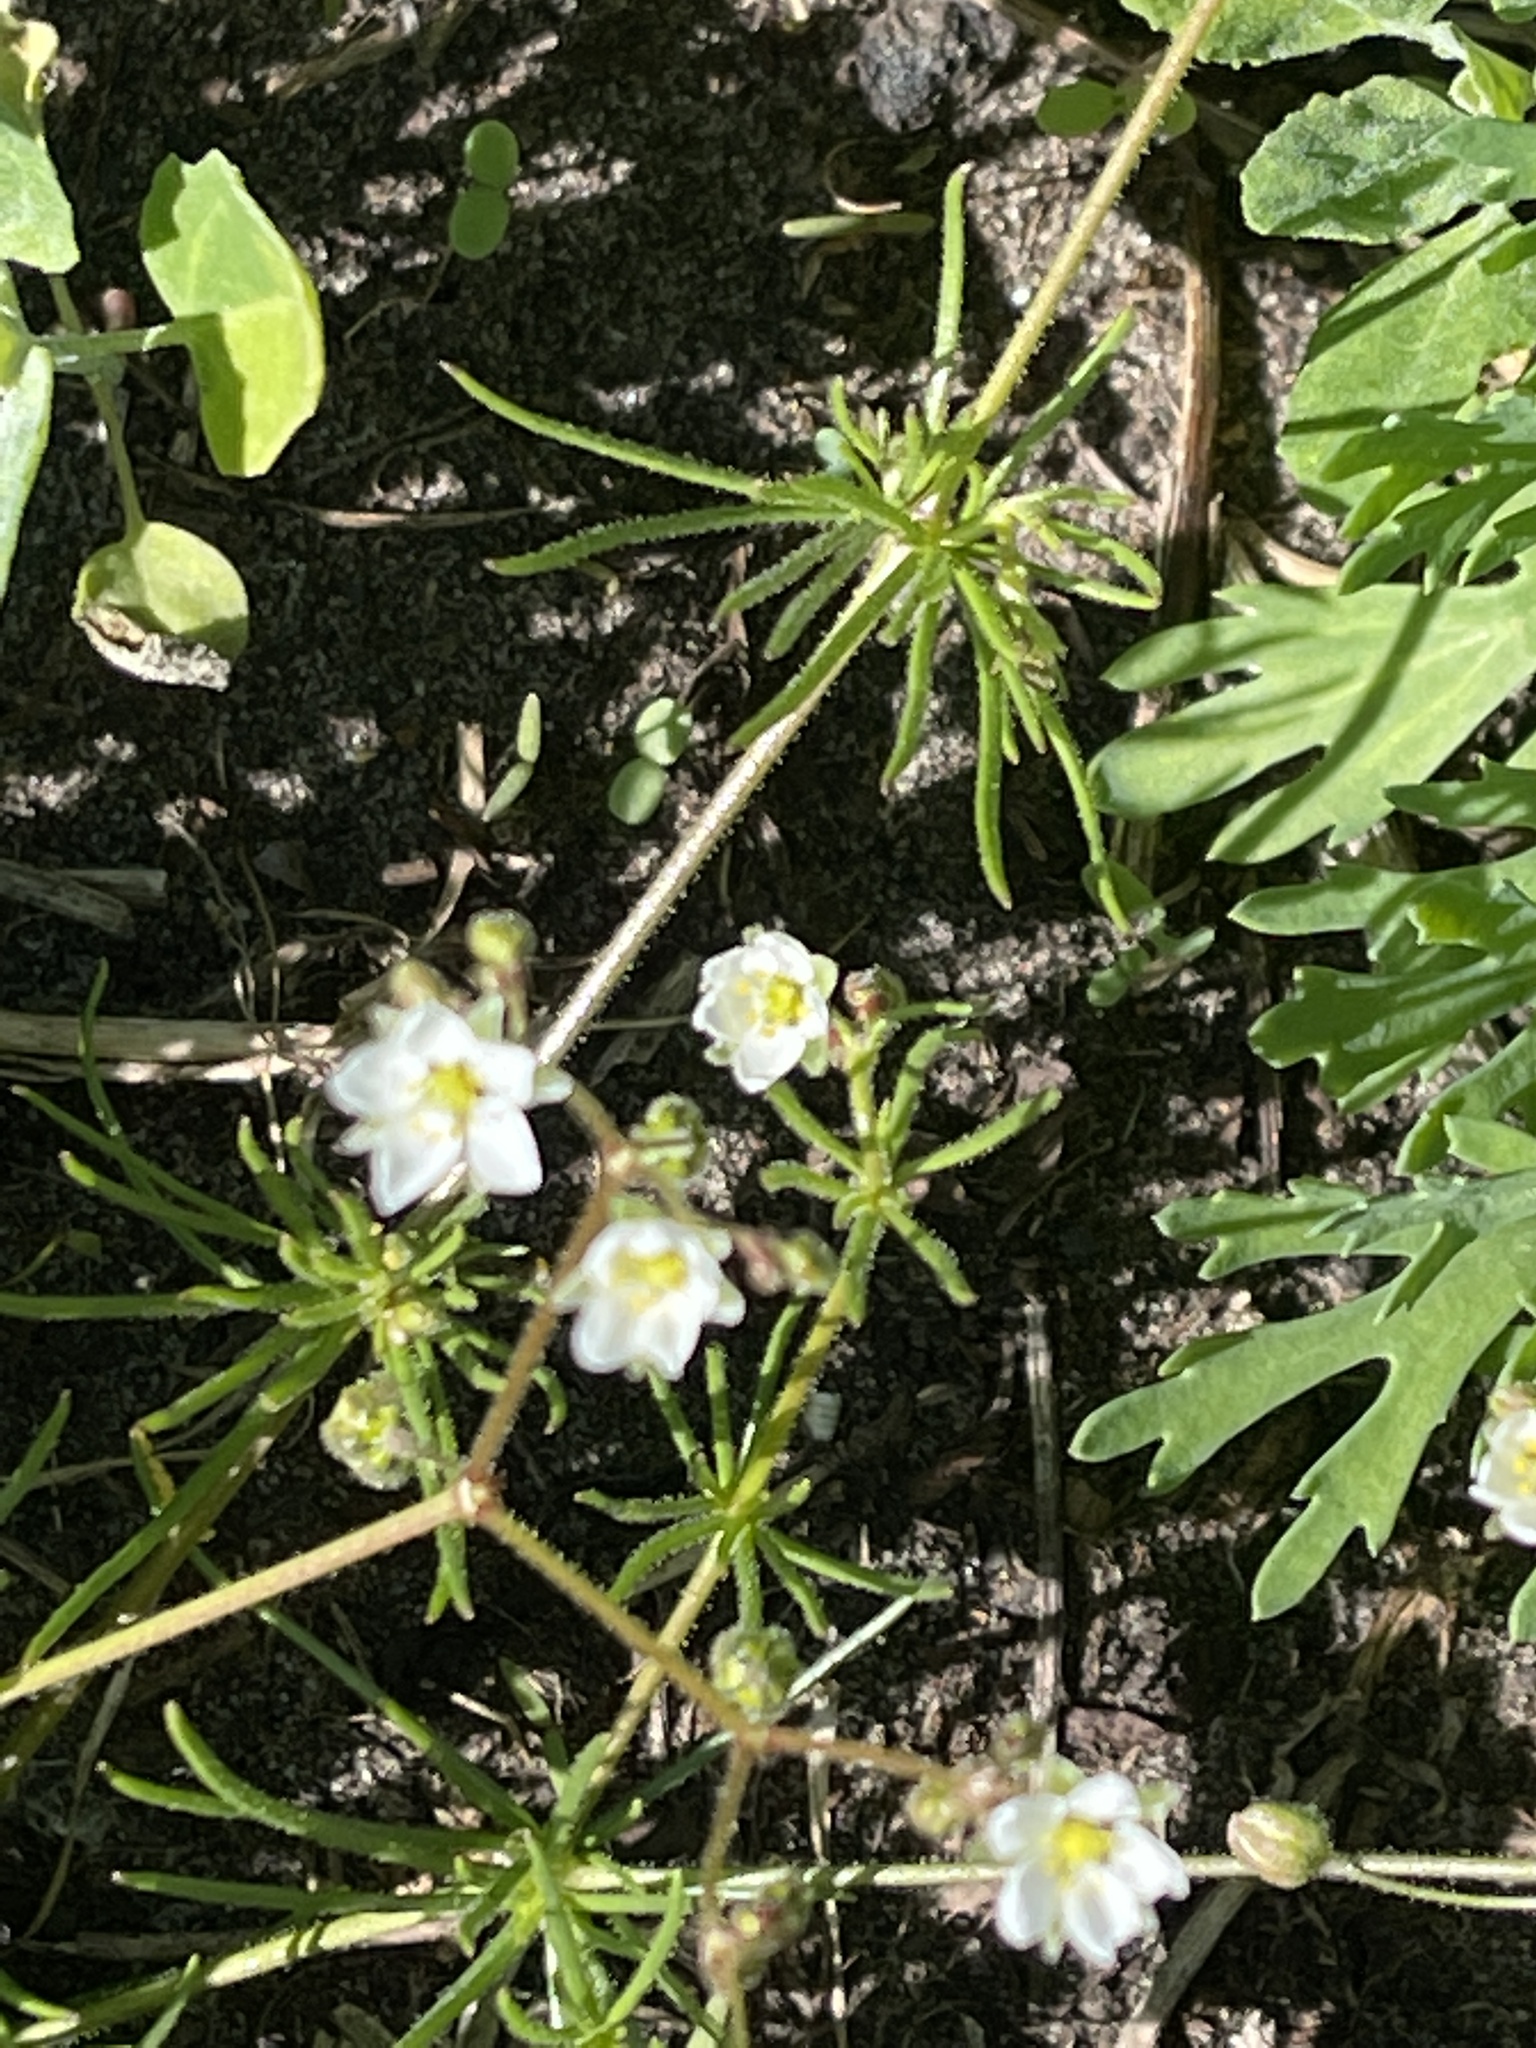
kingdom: Plantae
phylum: Tracheophyta
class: Magnoliopsida
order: Caryophyllales
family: Caryophyllaceae
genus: Spergula
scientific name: Spergula arvensis
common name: Corn spurrey
